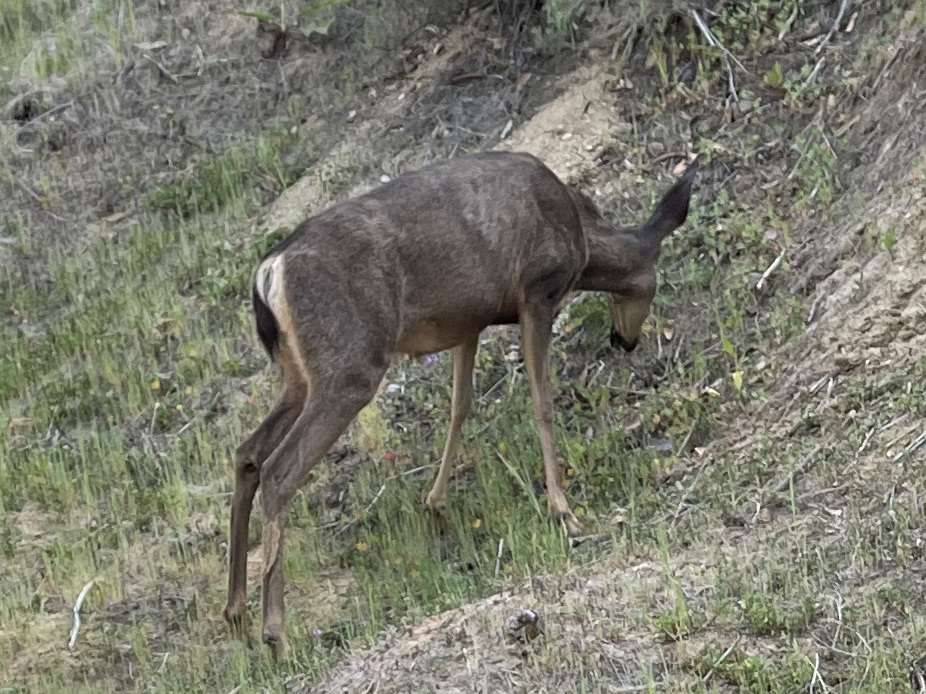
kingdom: Animalia
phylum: Chordata
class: Mammalia
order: Artiodactyla
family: Cervidae
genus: Odocoileus
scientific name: Odocoileus hemionus
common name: Mule deer
